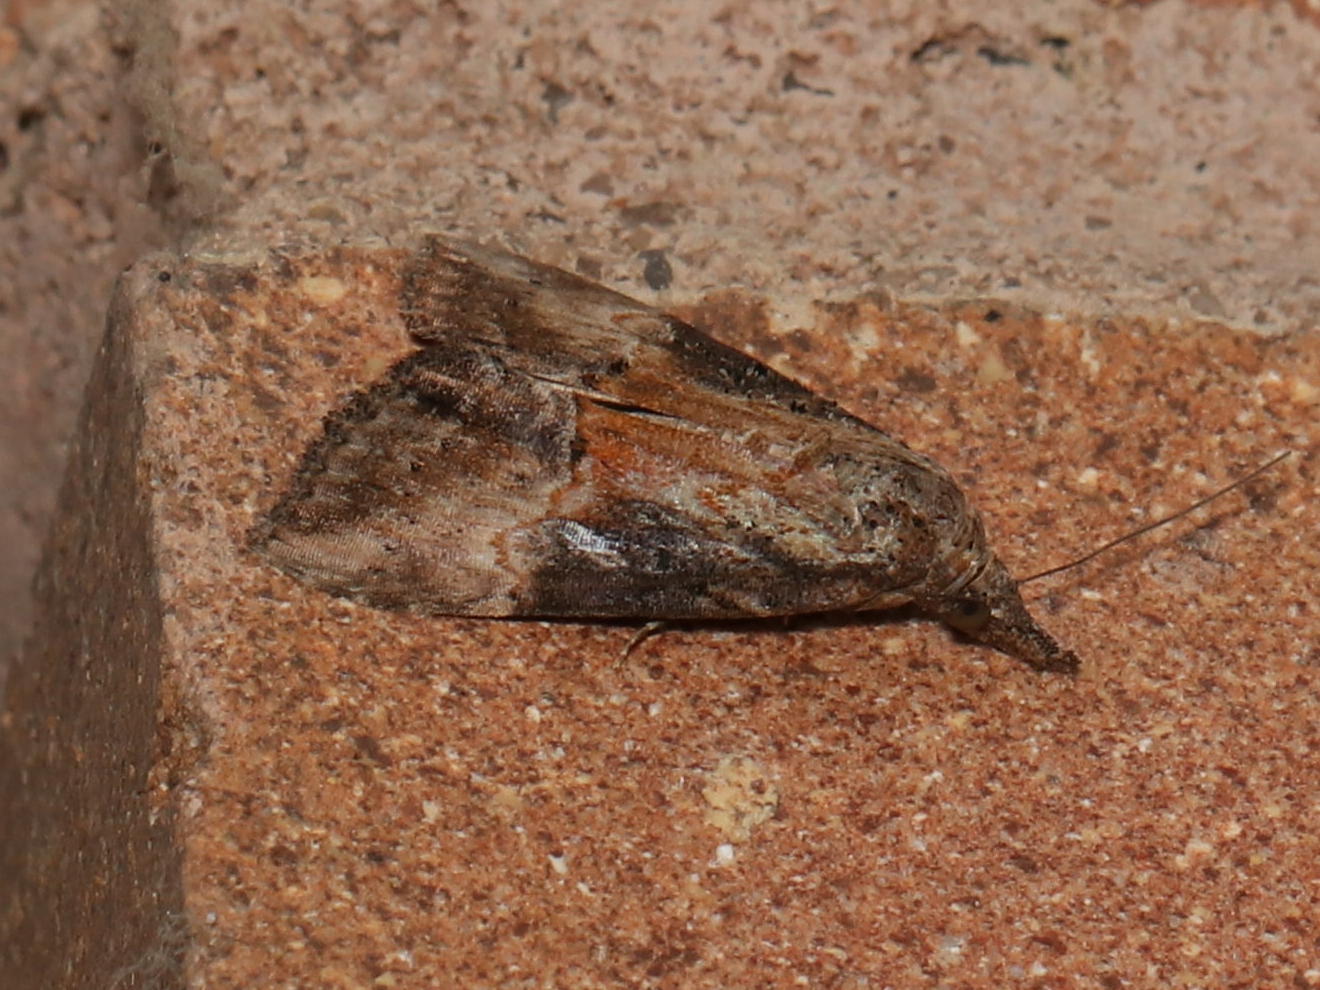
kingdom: Animalia
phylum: Arthropoda
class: Insecta
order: Lepidoptera
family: Erebidae
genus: Hypena
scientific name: Hypena scabra
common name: Green cloverworm
